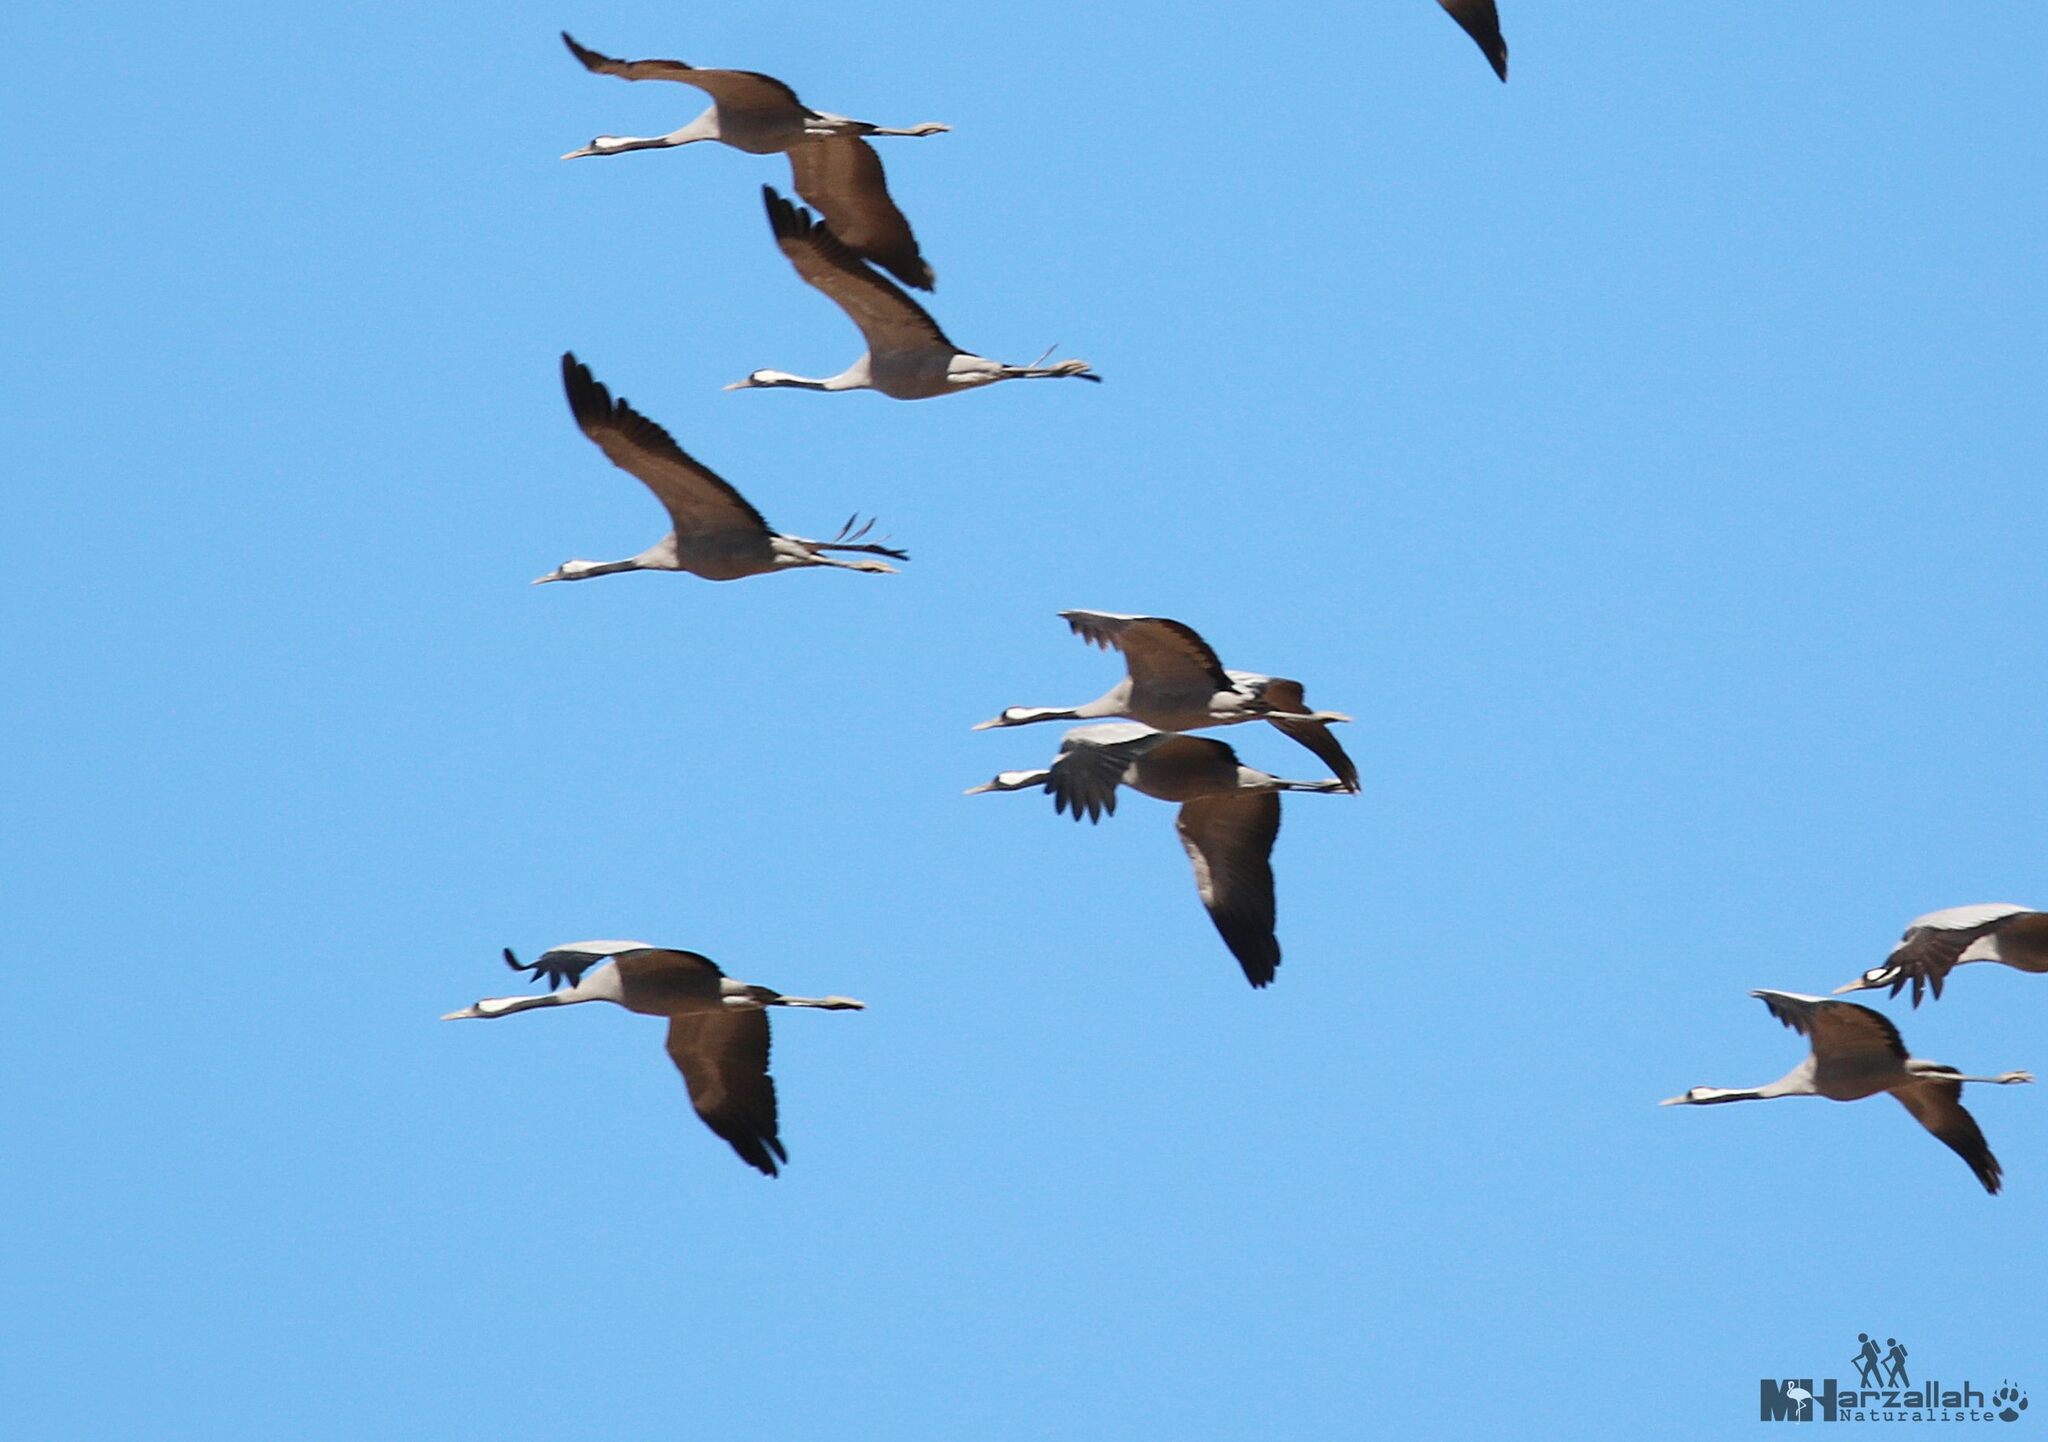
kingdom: Animalia
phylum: Chordata
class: Aves
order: Gruiformes
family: Gruidae
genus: Grus
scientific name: Grus grus
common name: Common crane
